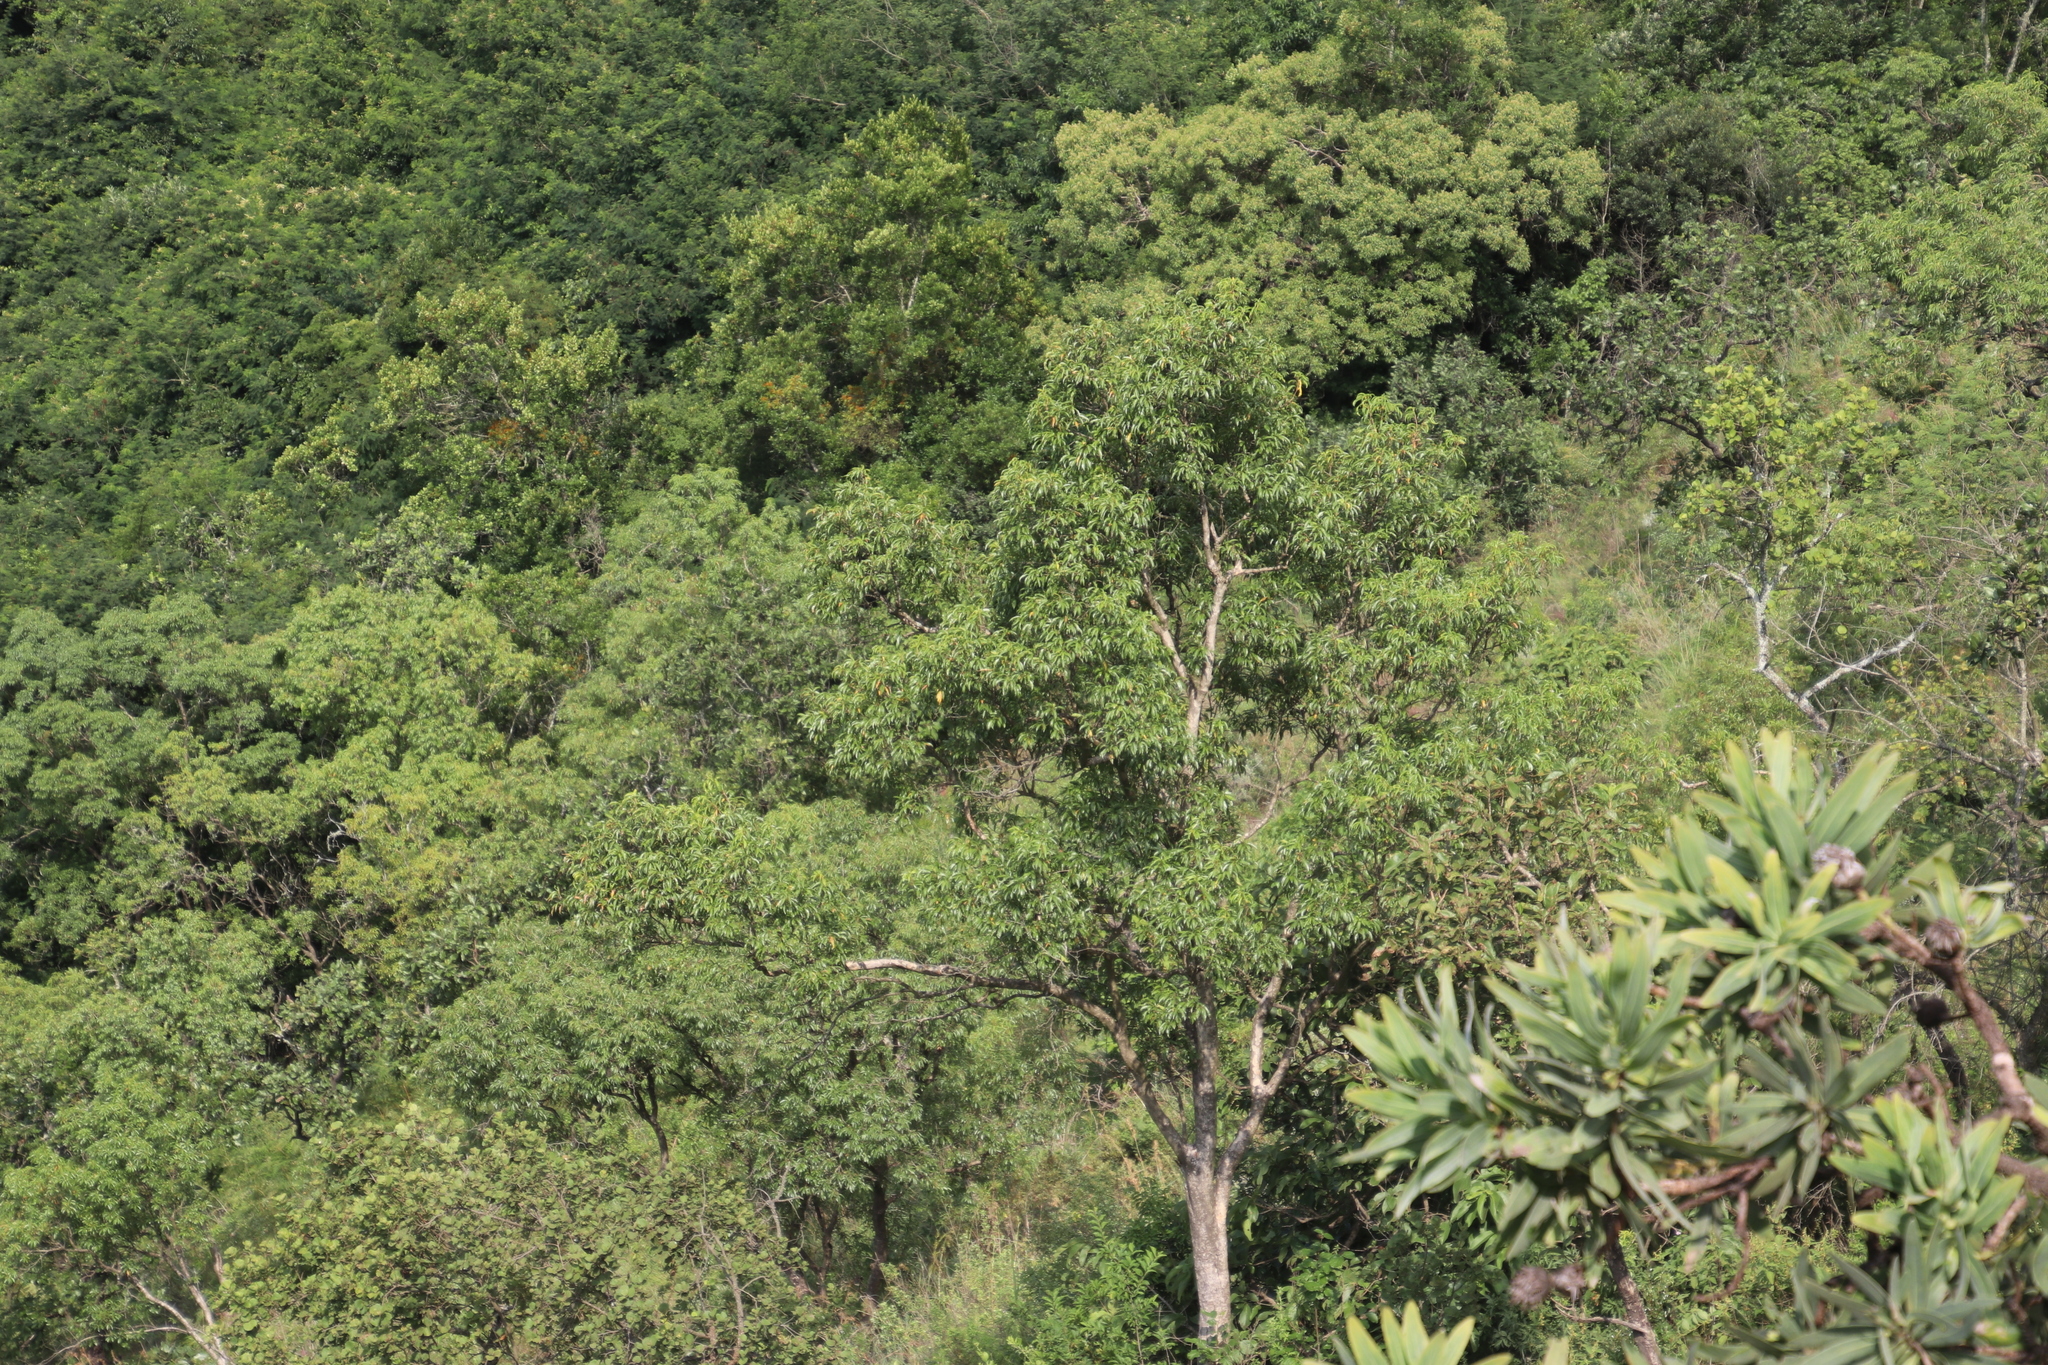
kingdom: Plantae
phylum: Tracheophyta
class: Magnoliopsida
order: Myrtales
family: Myrtaceae
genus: Heteropyxis
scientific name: Heteropyxis natalensis
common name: Lavender tree
